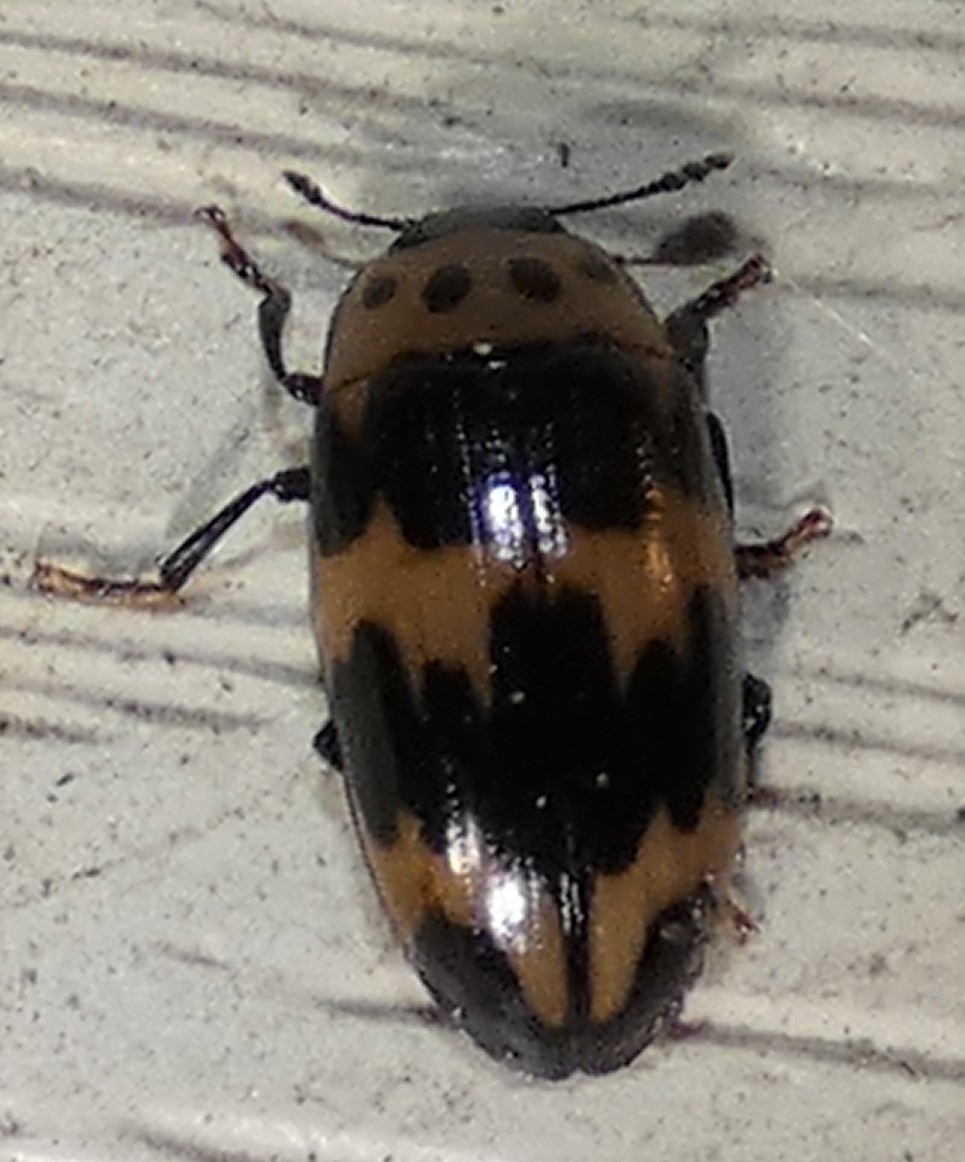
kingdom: Animalia
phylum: Arthropoda
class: Insecta
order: Coleoptera
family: Erotylidae
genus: Ischyrus
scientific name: Ischyrus quadripunctatus
